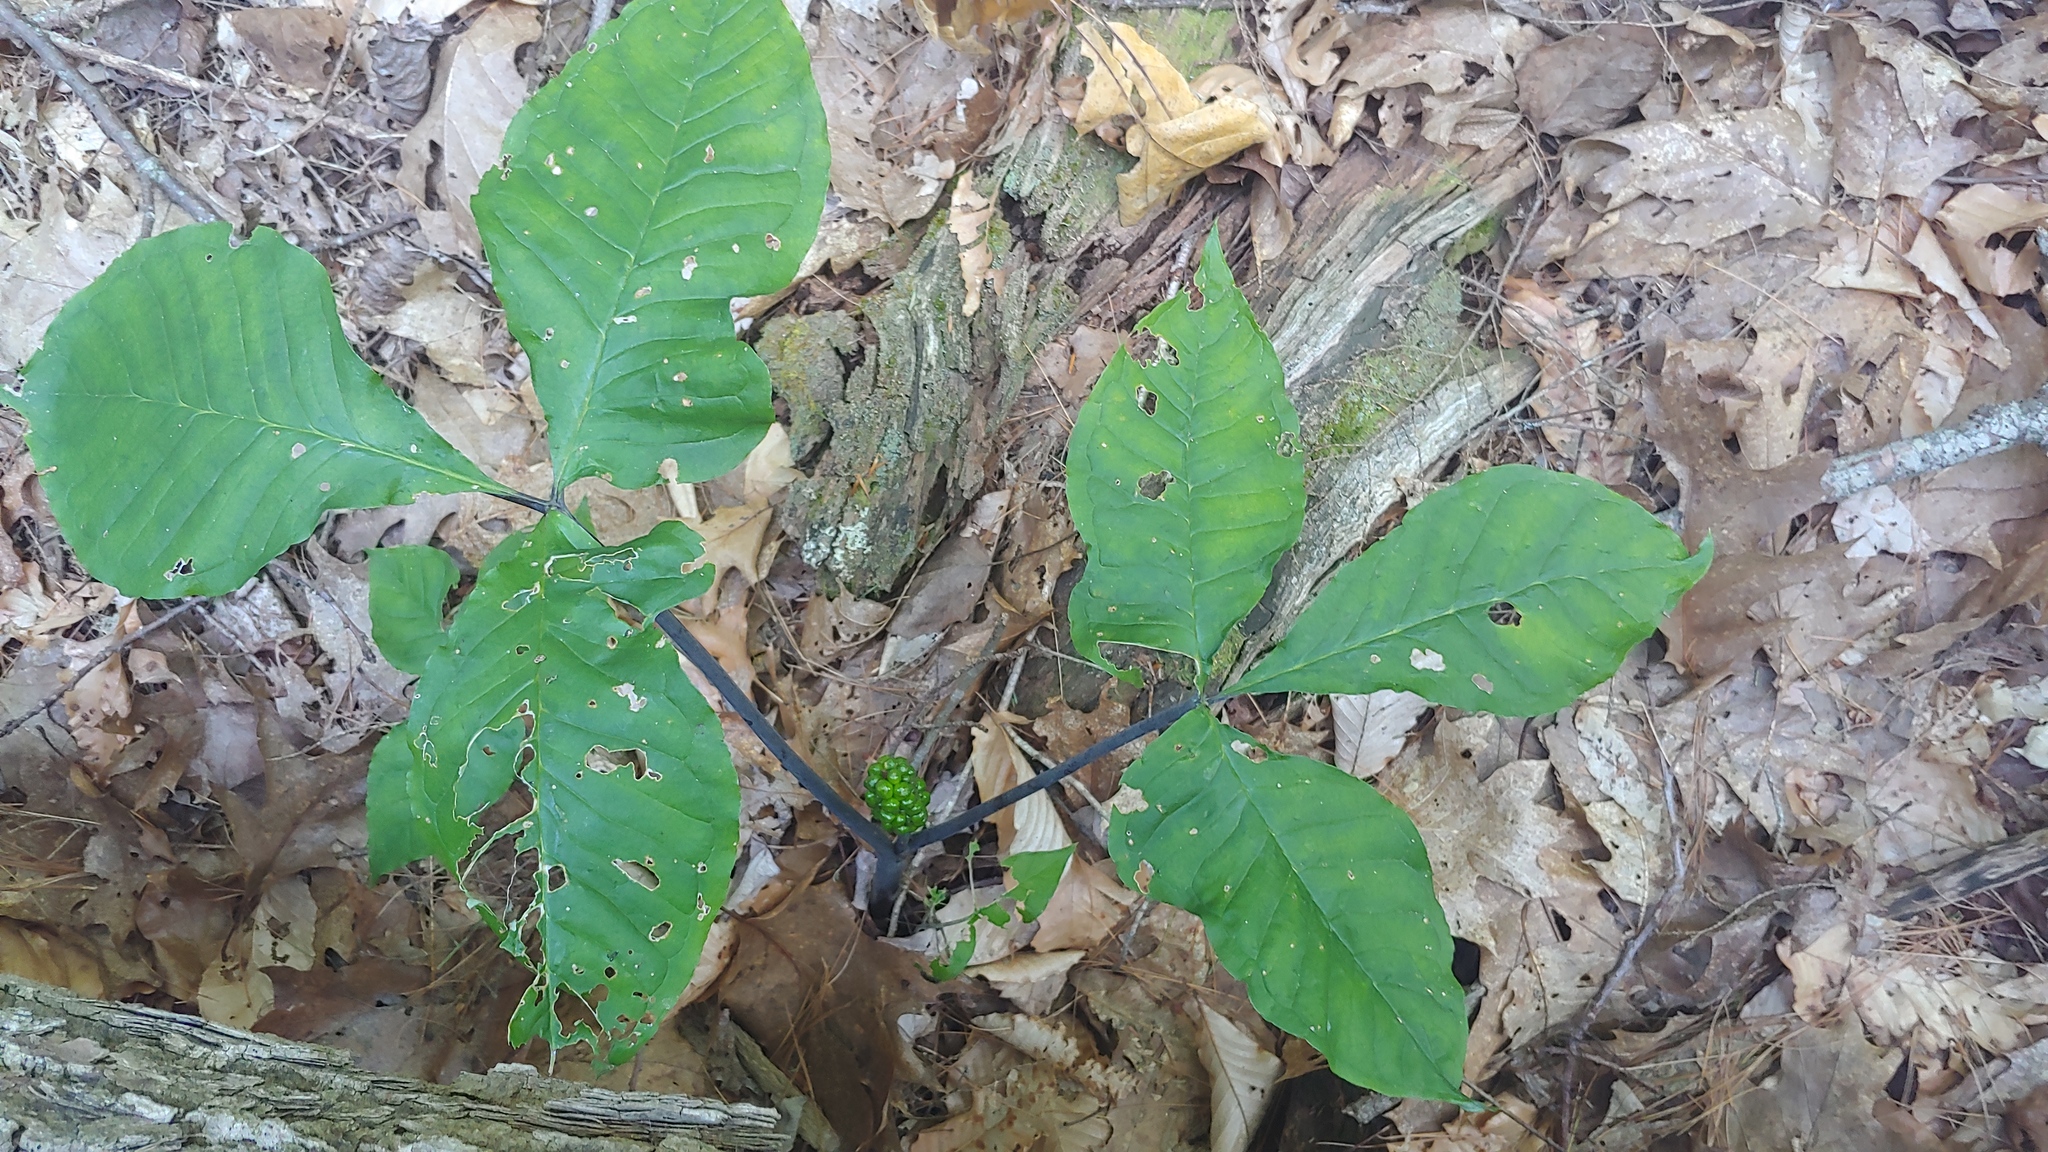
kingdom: Plantae
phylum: Tracheophyta
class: Liliopsida
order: Alismatales
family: Araceae
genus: Arisaema
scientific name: Arisaema triphyllum
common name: Jack-in-the-pulpit
